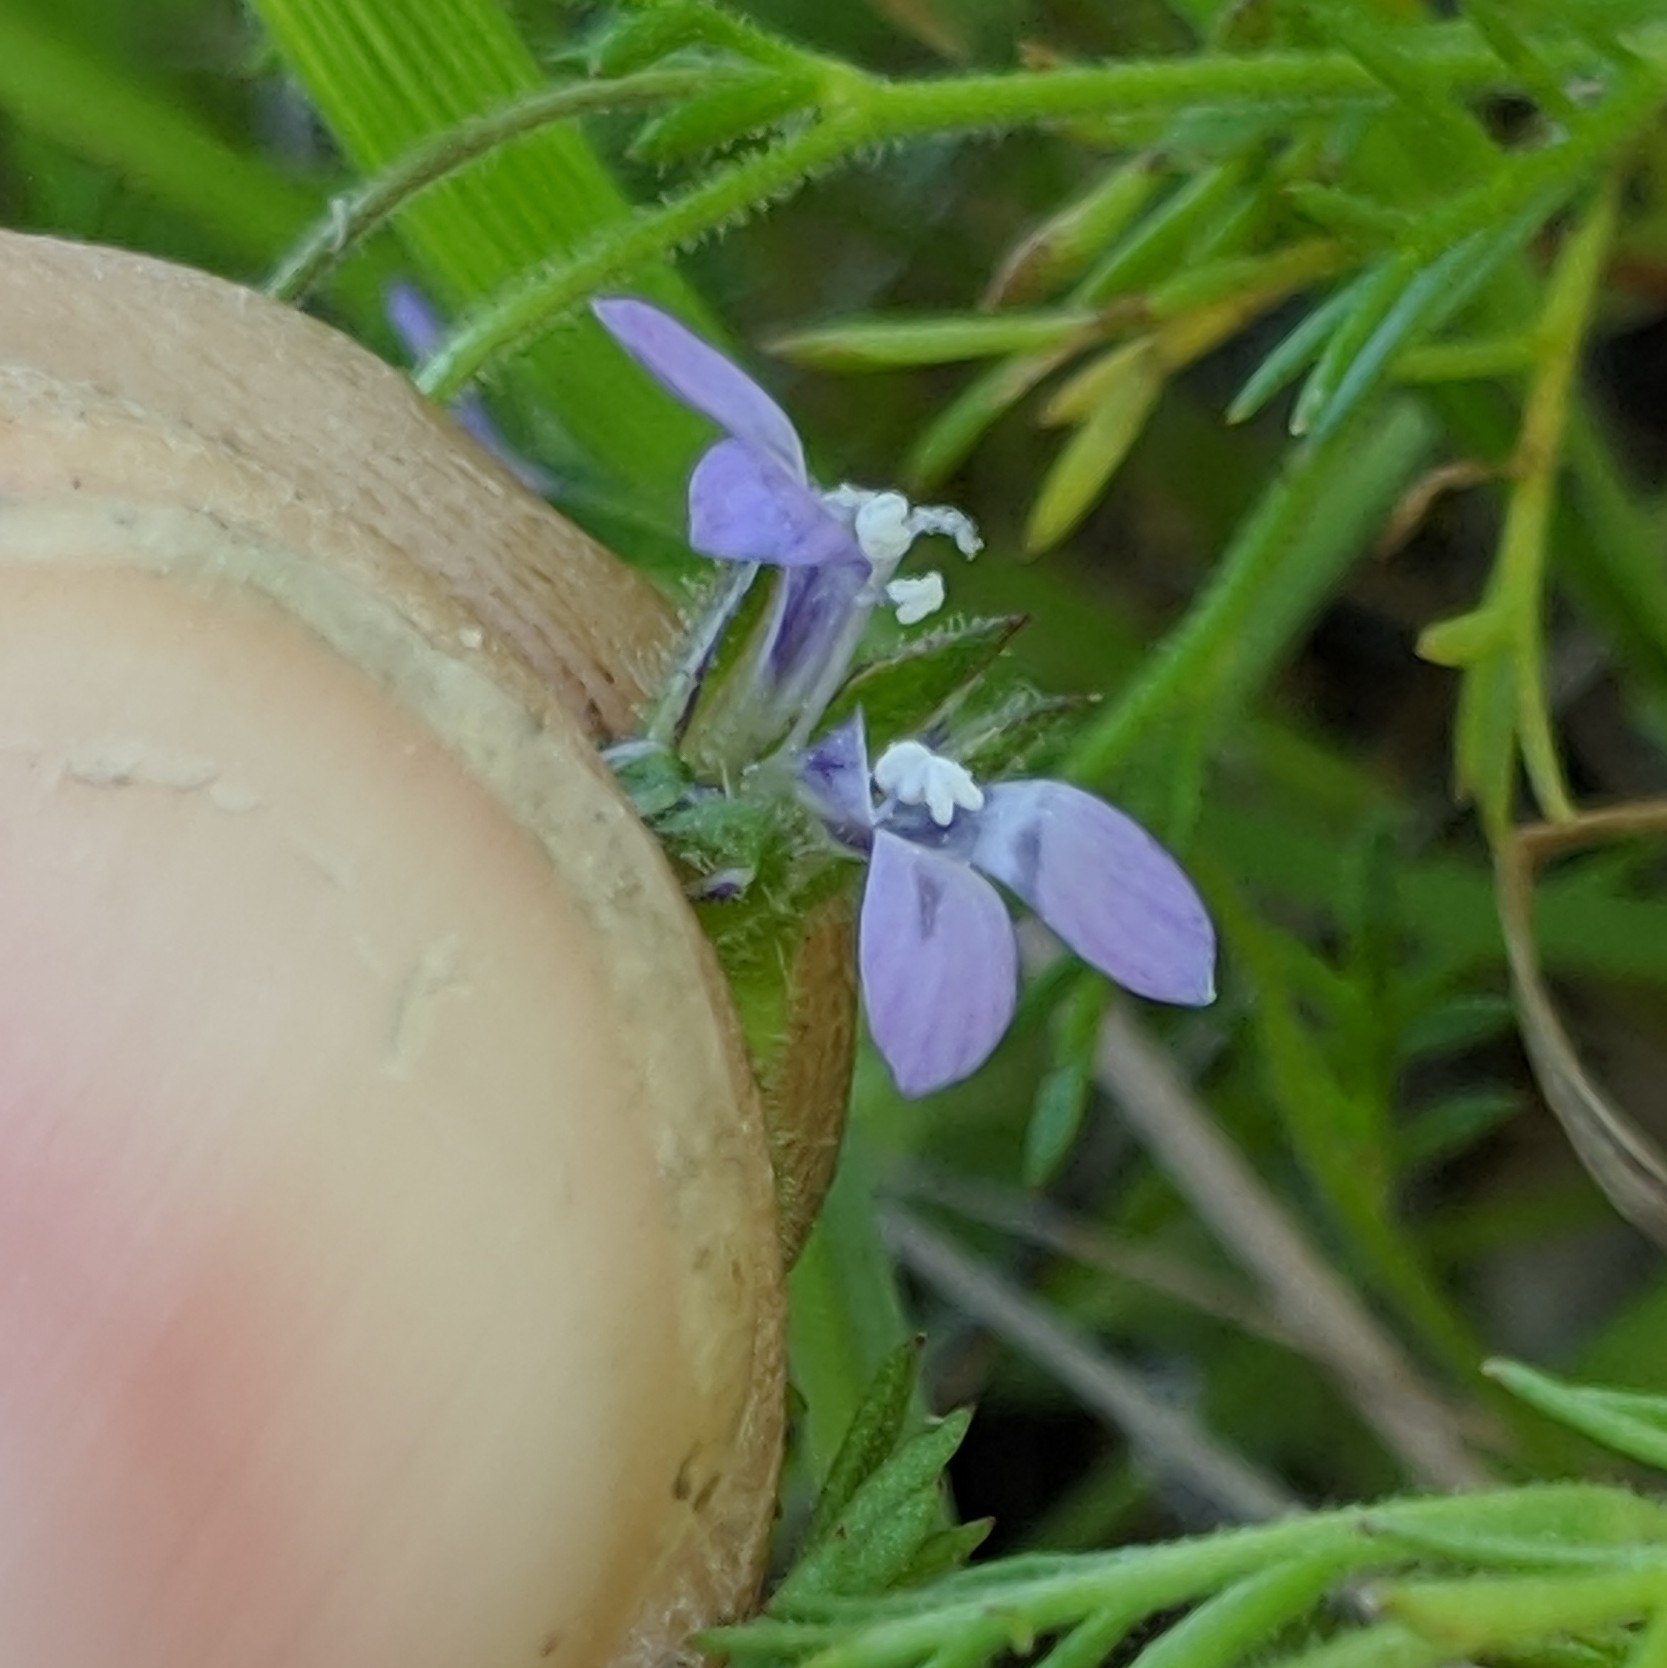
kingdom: Plantae
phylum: Tracheophyta
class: Magnoliopsida
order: Ericales
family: Polemoniaceae
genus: Gilia
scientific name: Gilia achilleifolia
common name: California gily-flower
